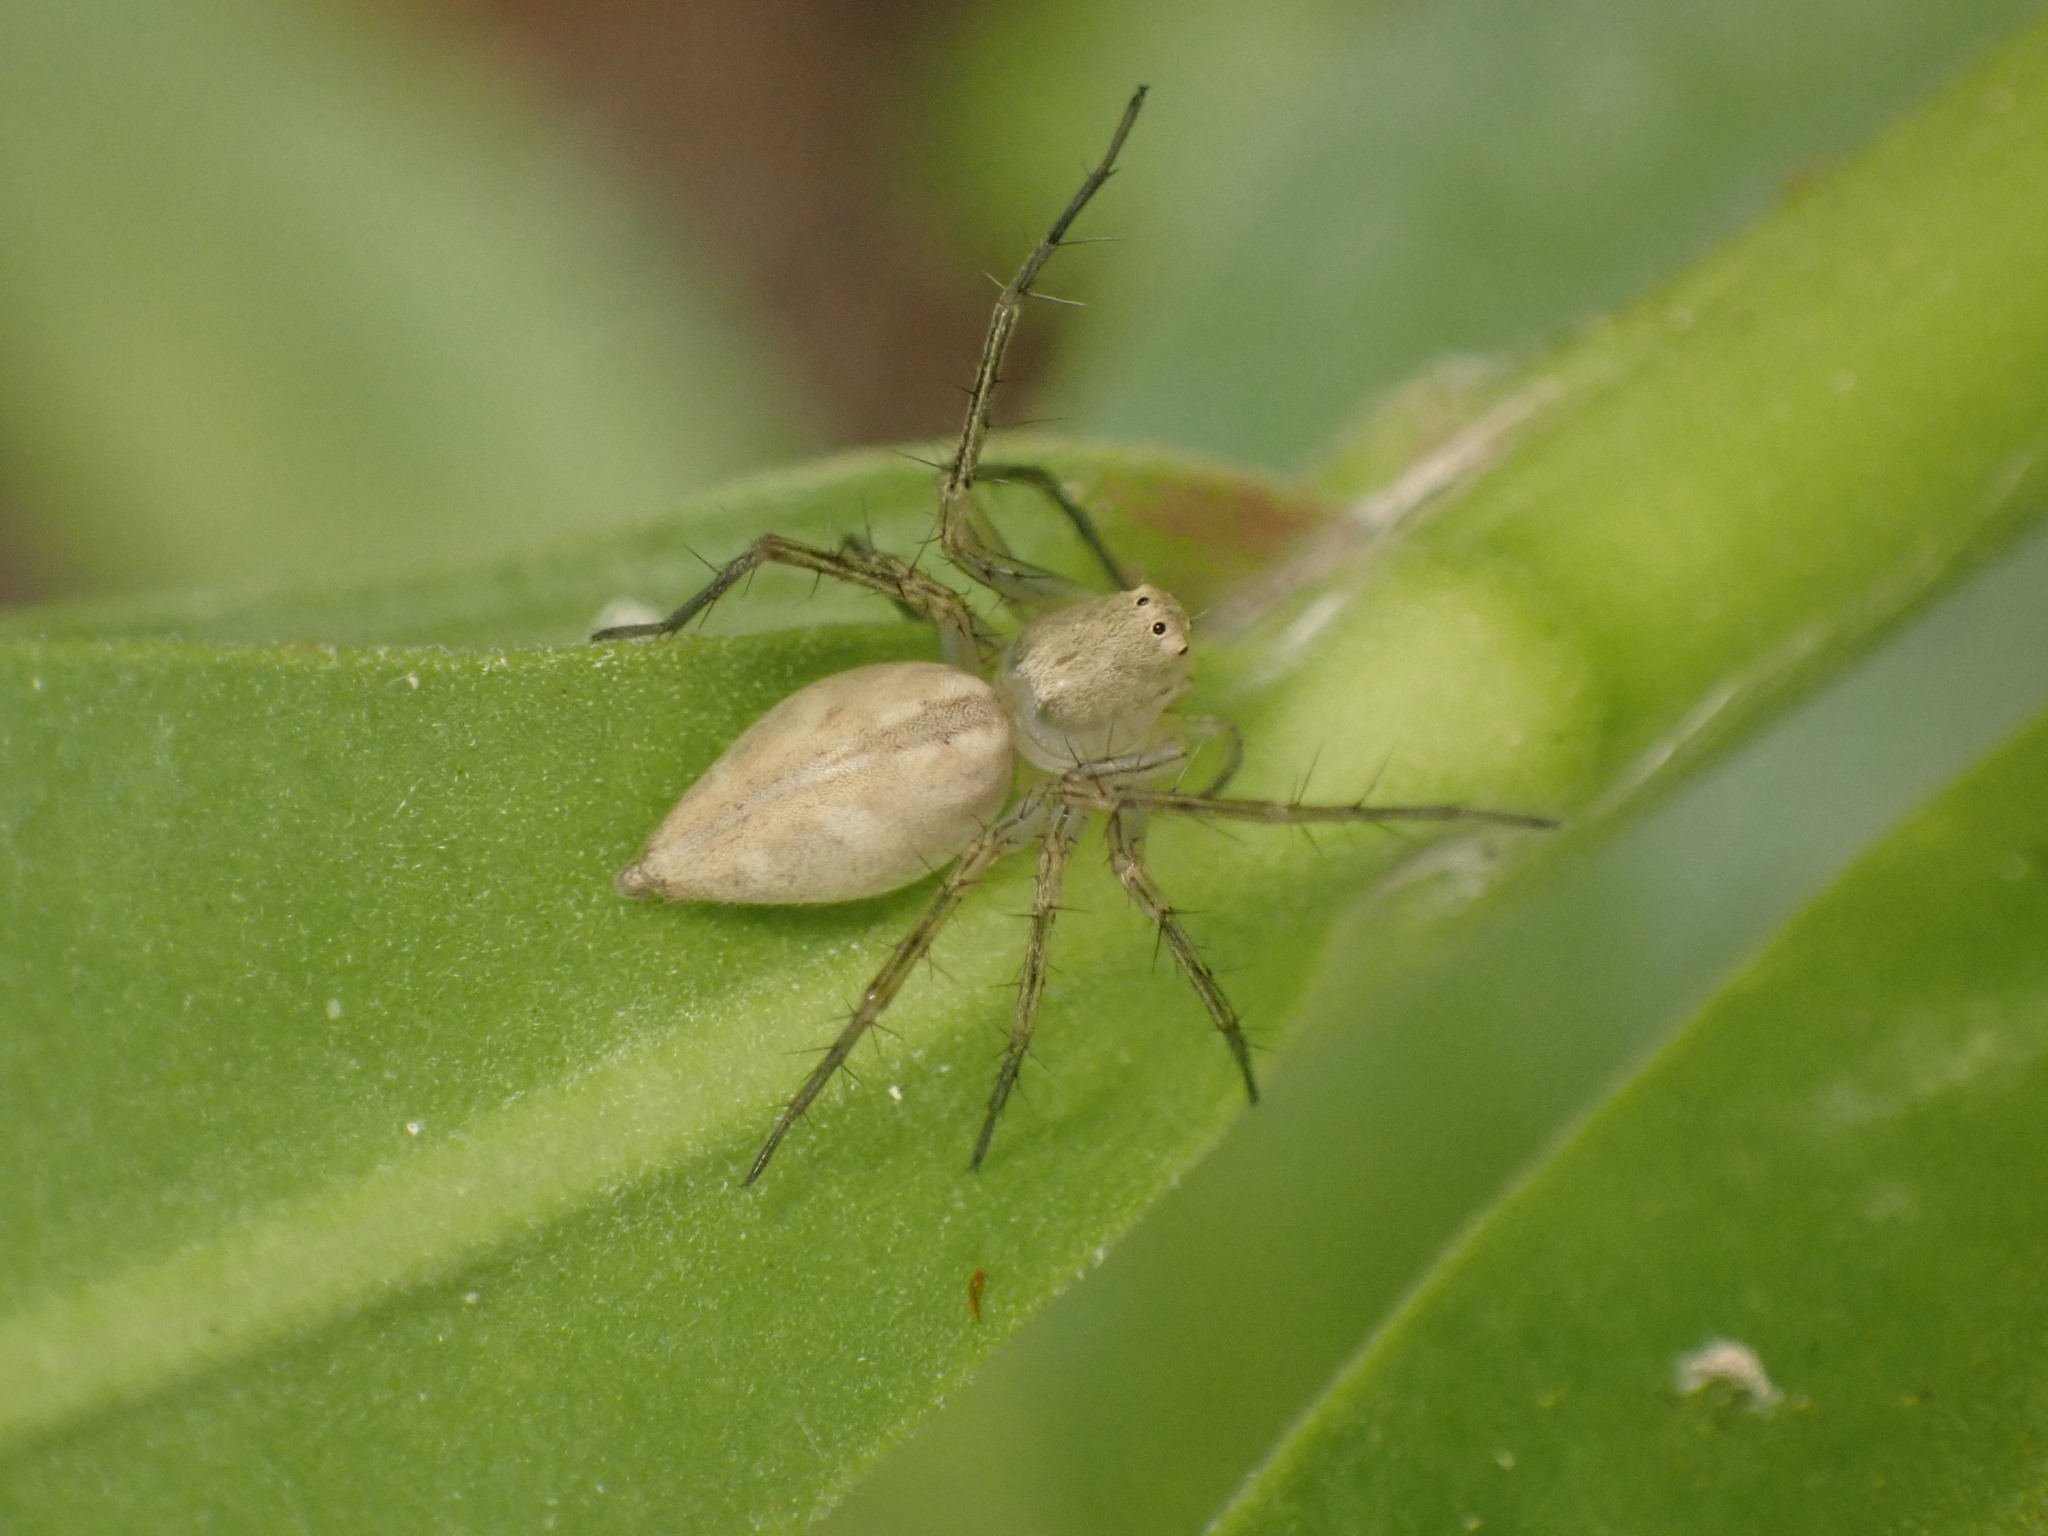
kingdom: Animalia
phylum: Arthropoda
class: Arachnida
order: Araneae
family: Oxyopidae
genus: Oxyopes
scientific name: Oxyopes salticus
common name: Lynx spiders
